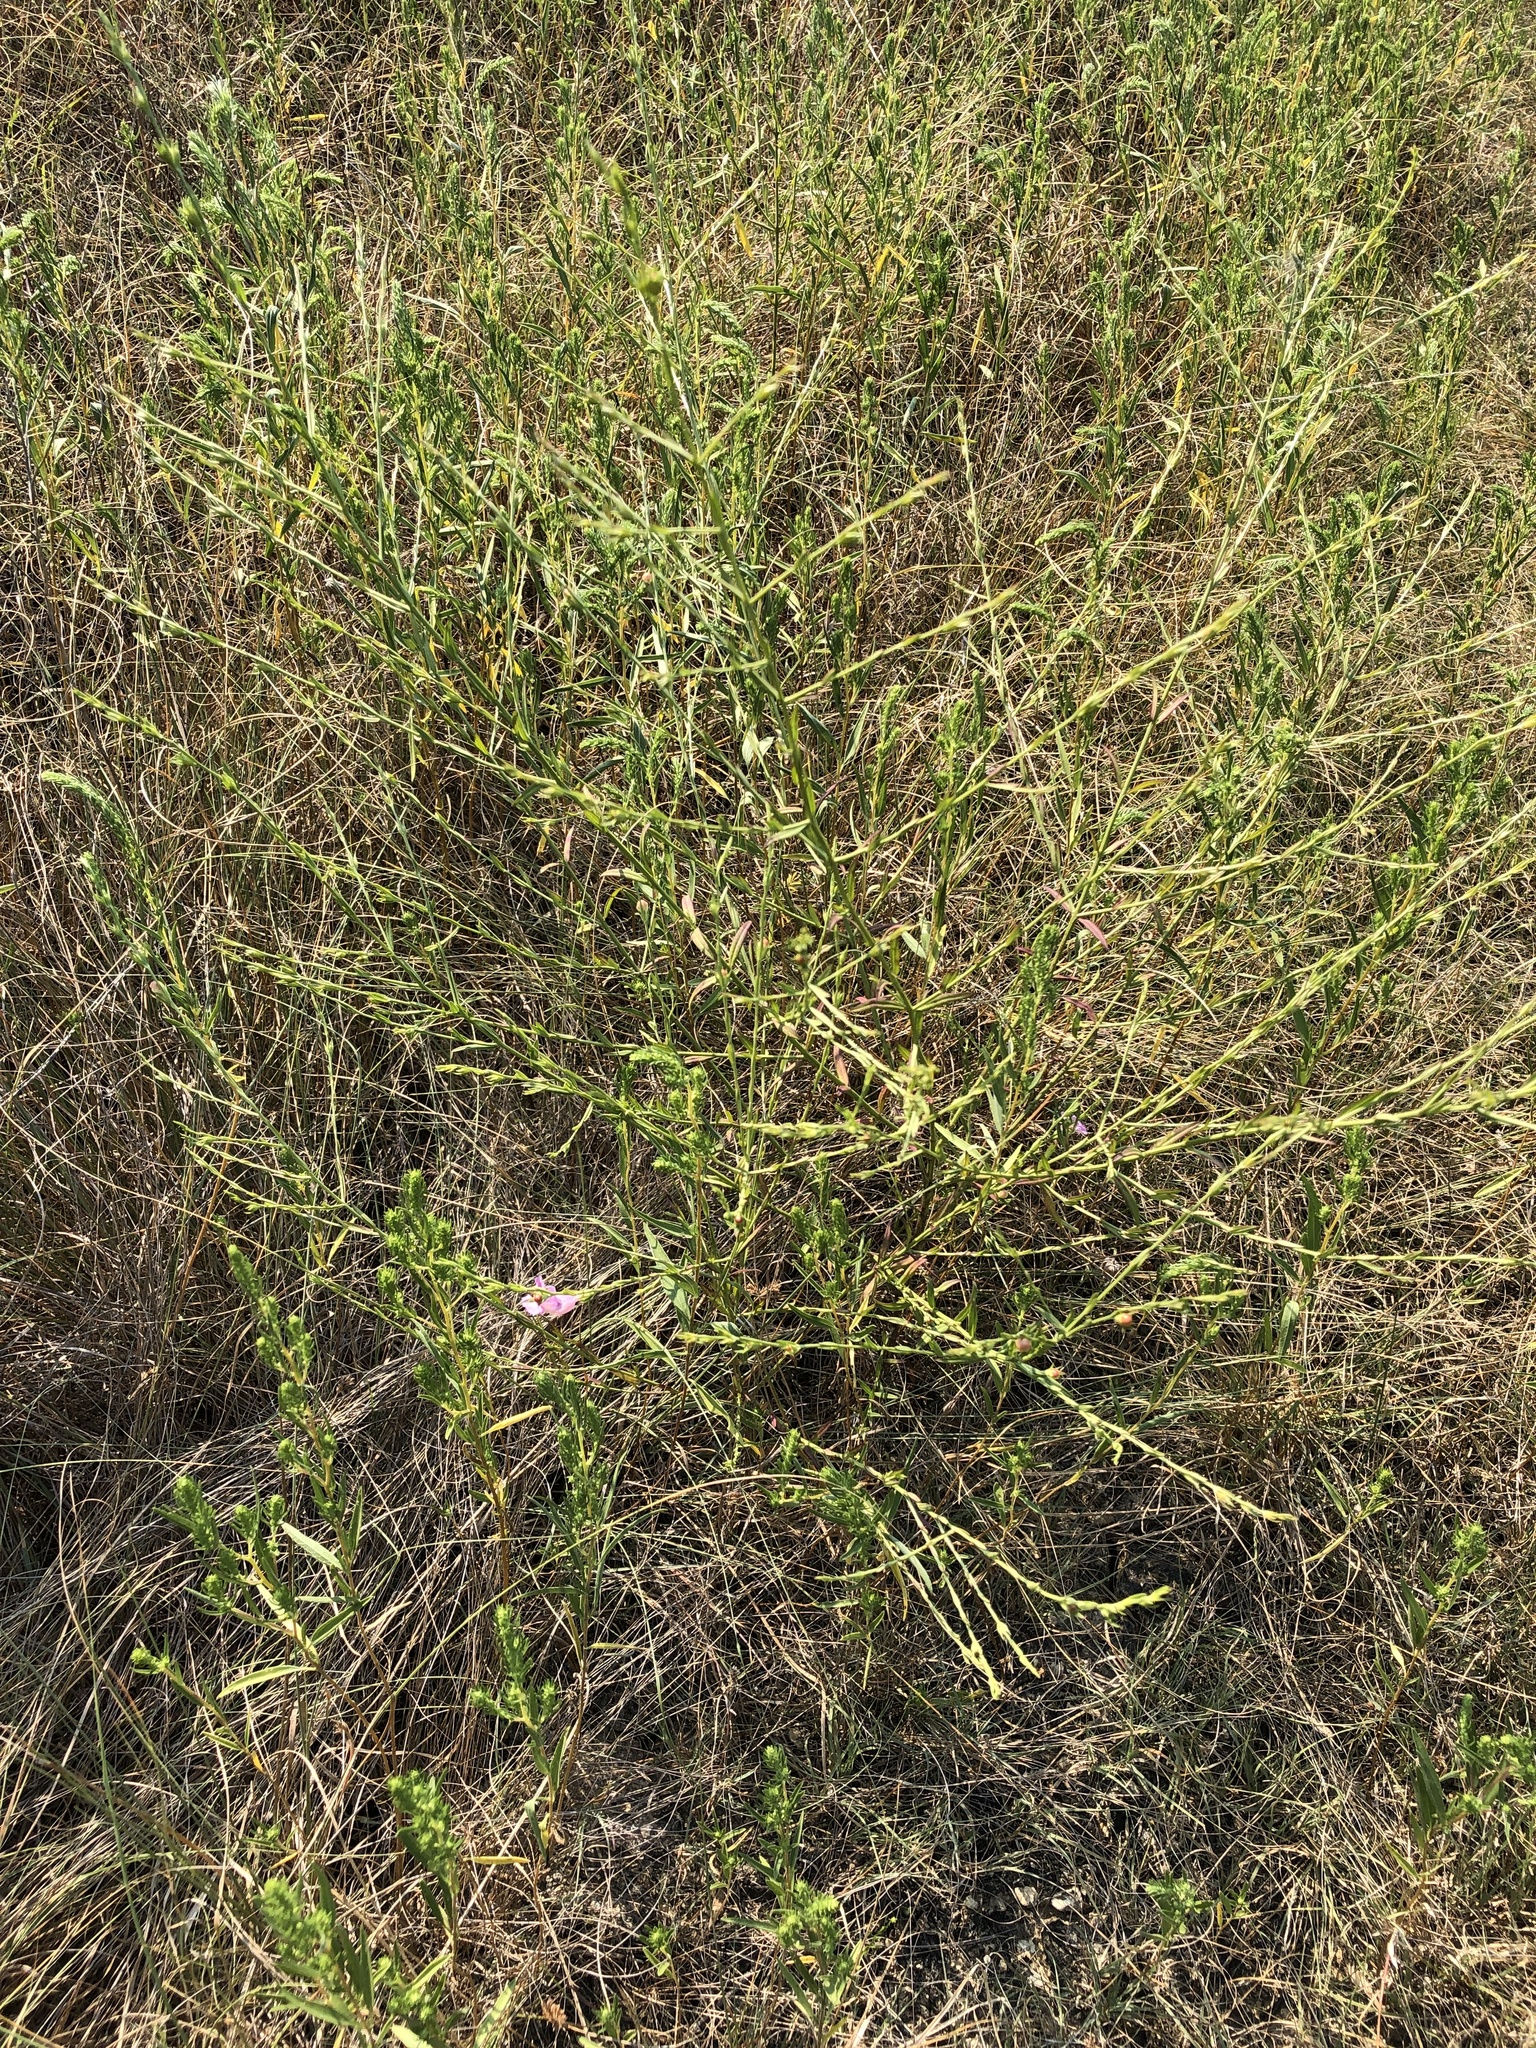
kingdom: Plantae
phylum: Tracheophyta
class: Magnoliopsida
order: Lamiales
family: Orobanchaceae
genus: Agalinis
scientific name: Agalinis heterophylla
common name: Prairie agalinis
